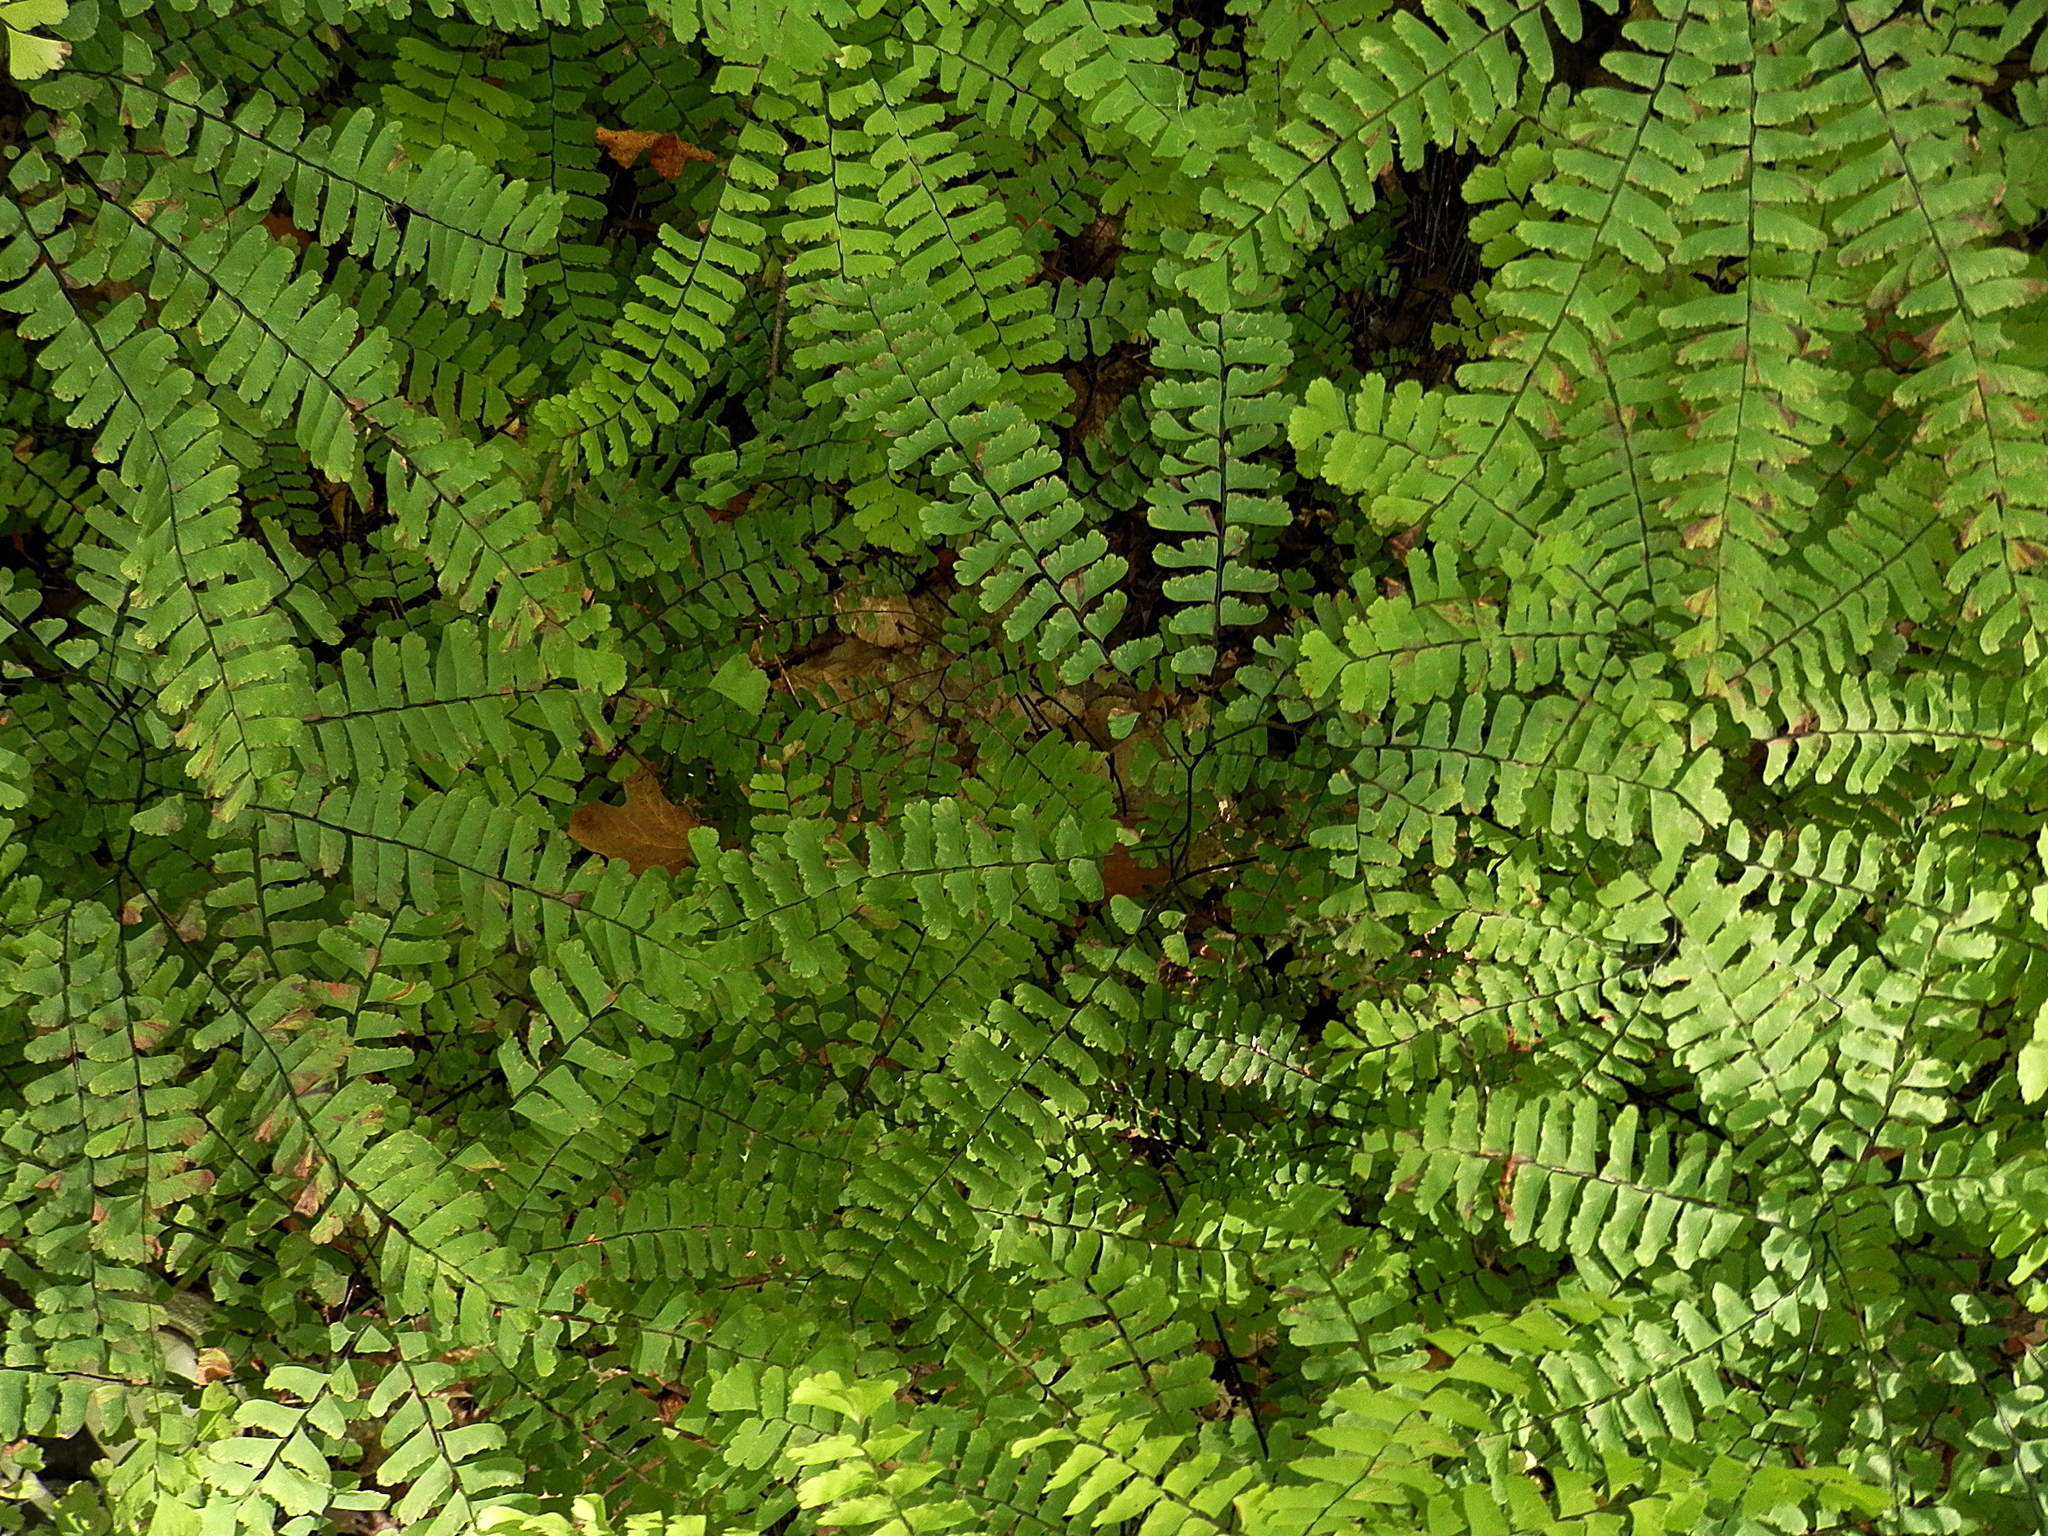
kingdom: Plantae
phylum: Tracheophyta
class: Polypodiopsida
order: Polypodiales
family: Pteridaceae
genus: Adiantum
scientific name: Adiantum pedatum
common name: Five-finger fern
